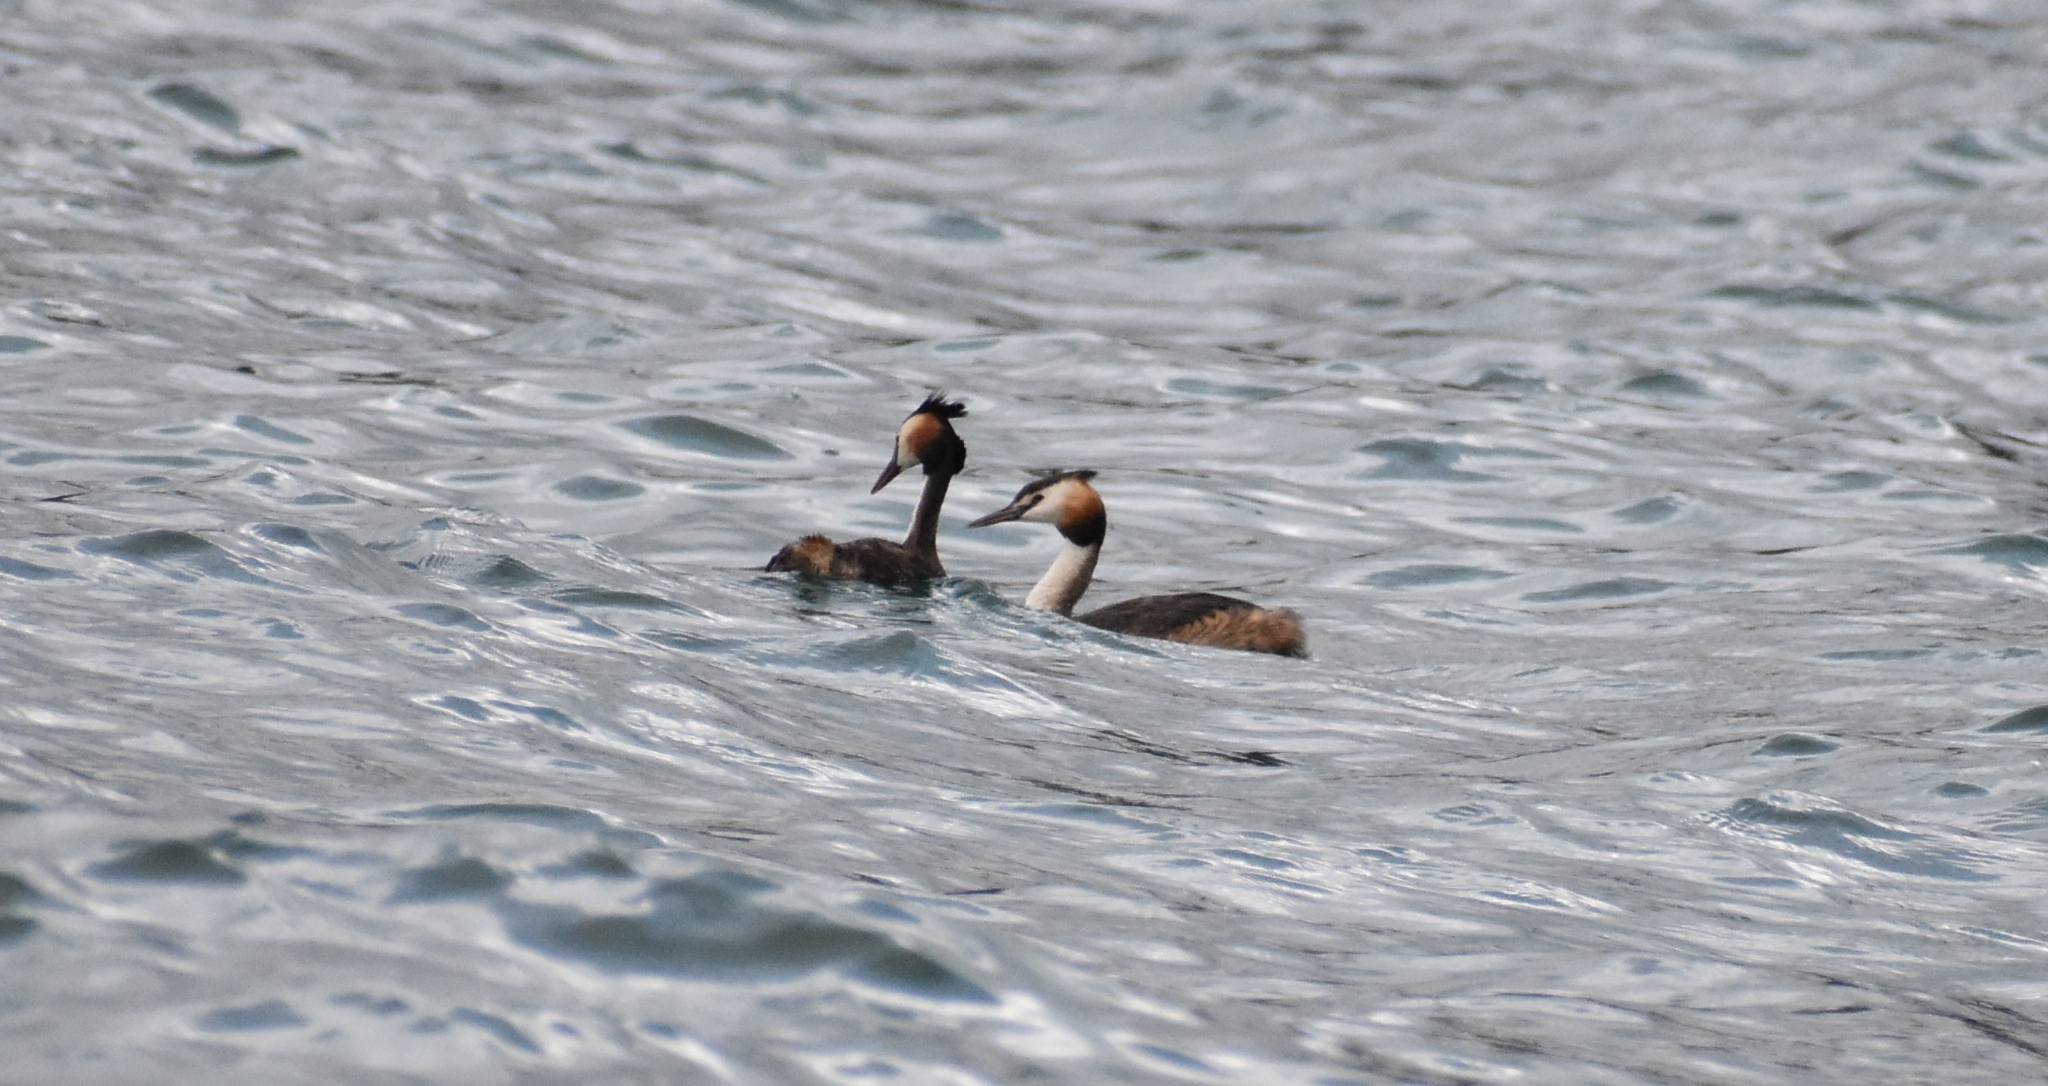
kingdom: Animalia
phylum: Chordata
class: Aves
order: Podicipediformes
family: Podicipedidae
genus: Podiceps
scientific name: Podiceps cristatus
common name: Great crested grebe
